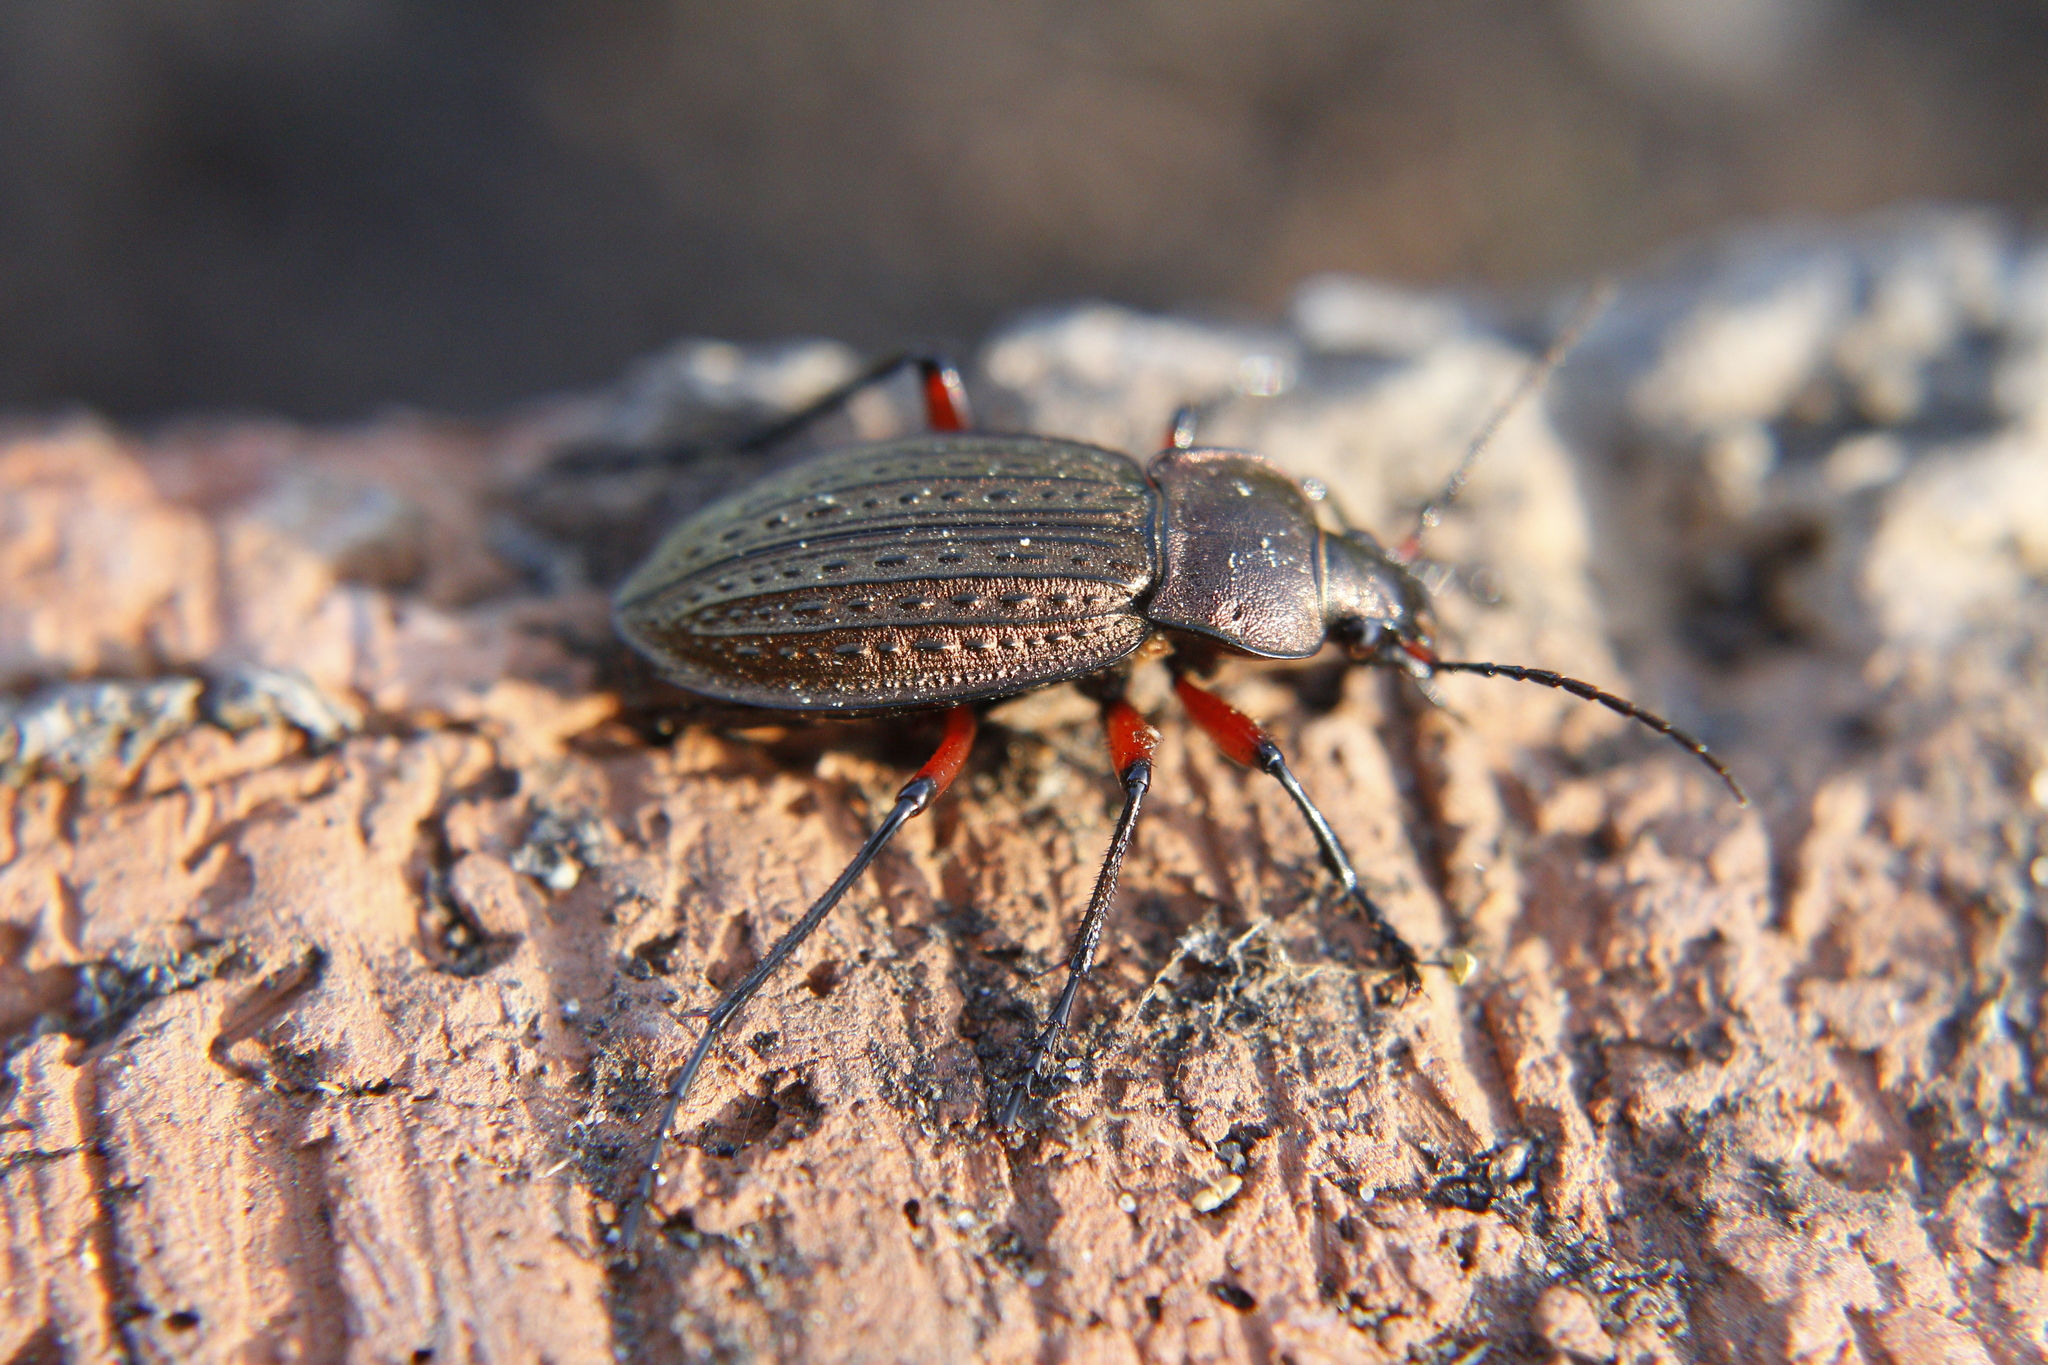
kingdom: Animalia
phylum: Arthropoda
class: Insecta
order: Coleoptera
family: Carabidae
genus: Carabus
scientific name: Carabus cancellatus
